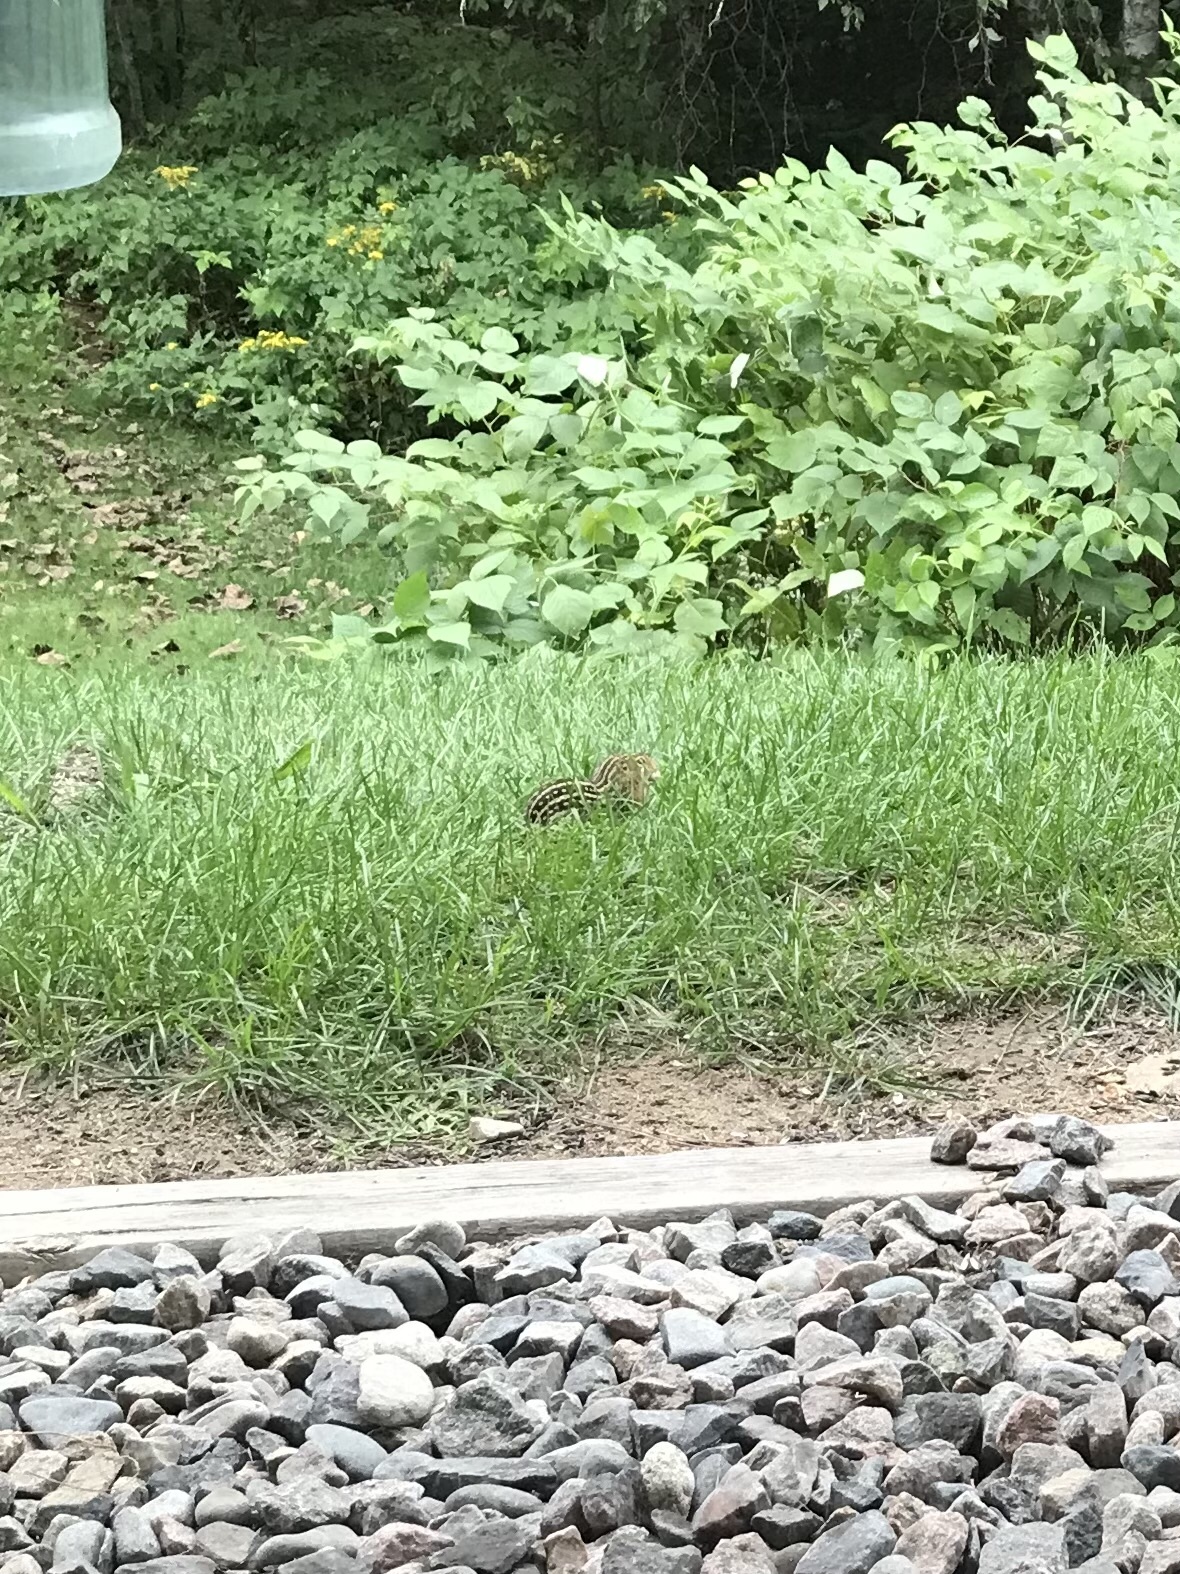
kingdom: Animalia
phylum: Chordata
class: Mammalia
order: Rodentia
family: Sciuridae
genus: Ictidomys
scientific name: Ictidomys tridecemlineatus
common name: Thirteen-lined ground squirrel
